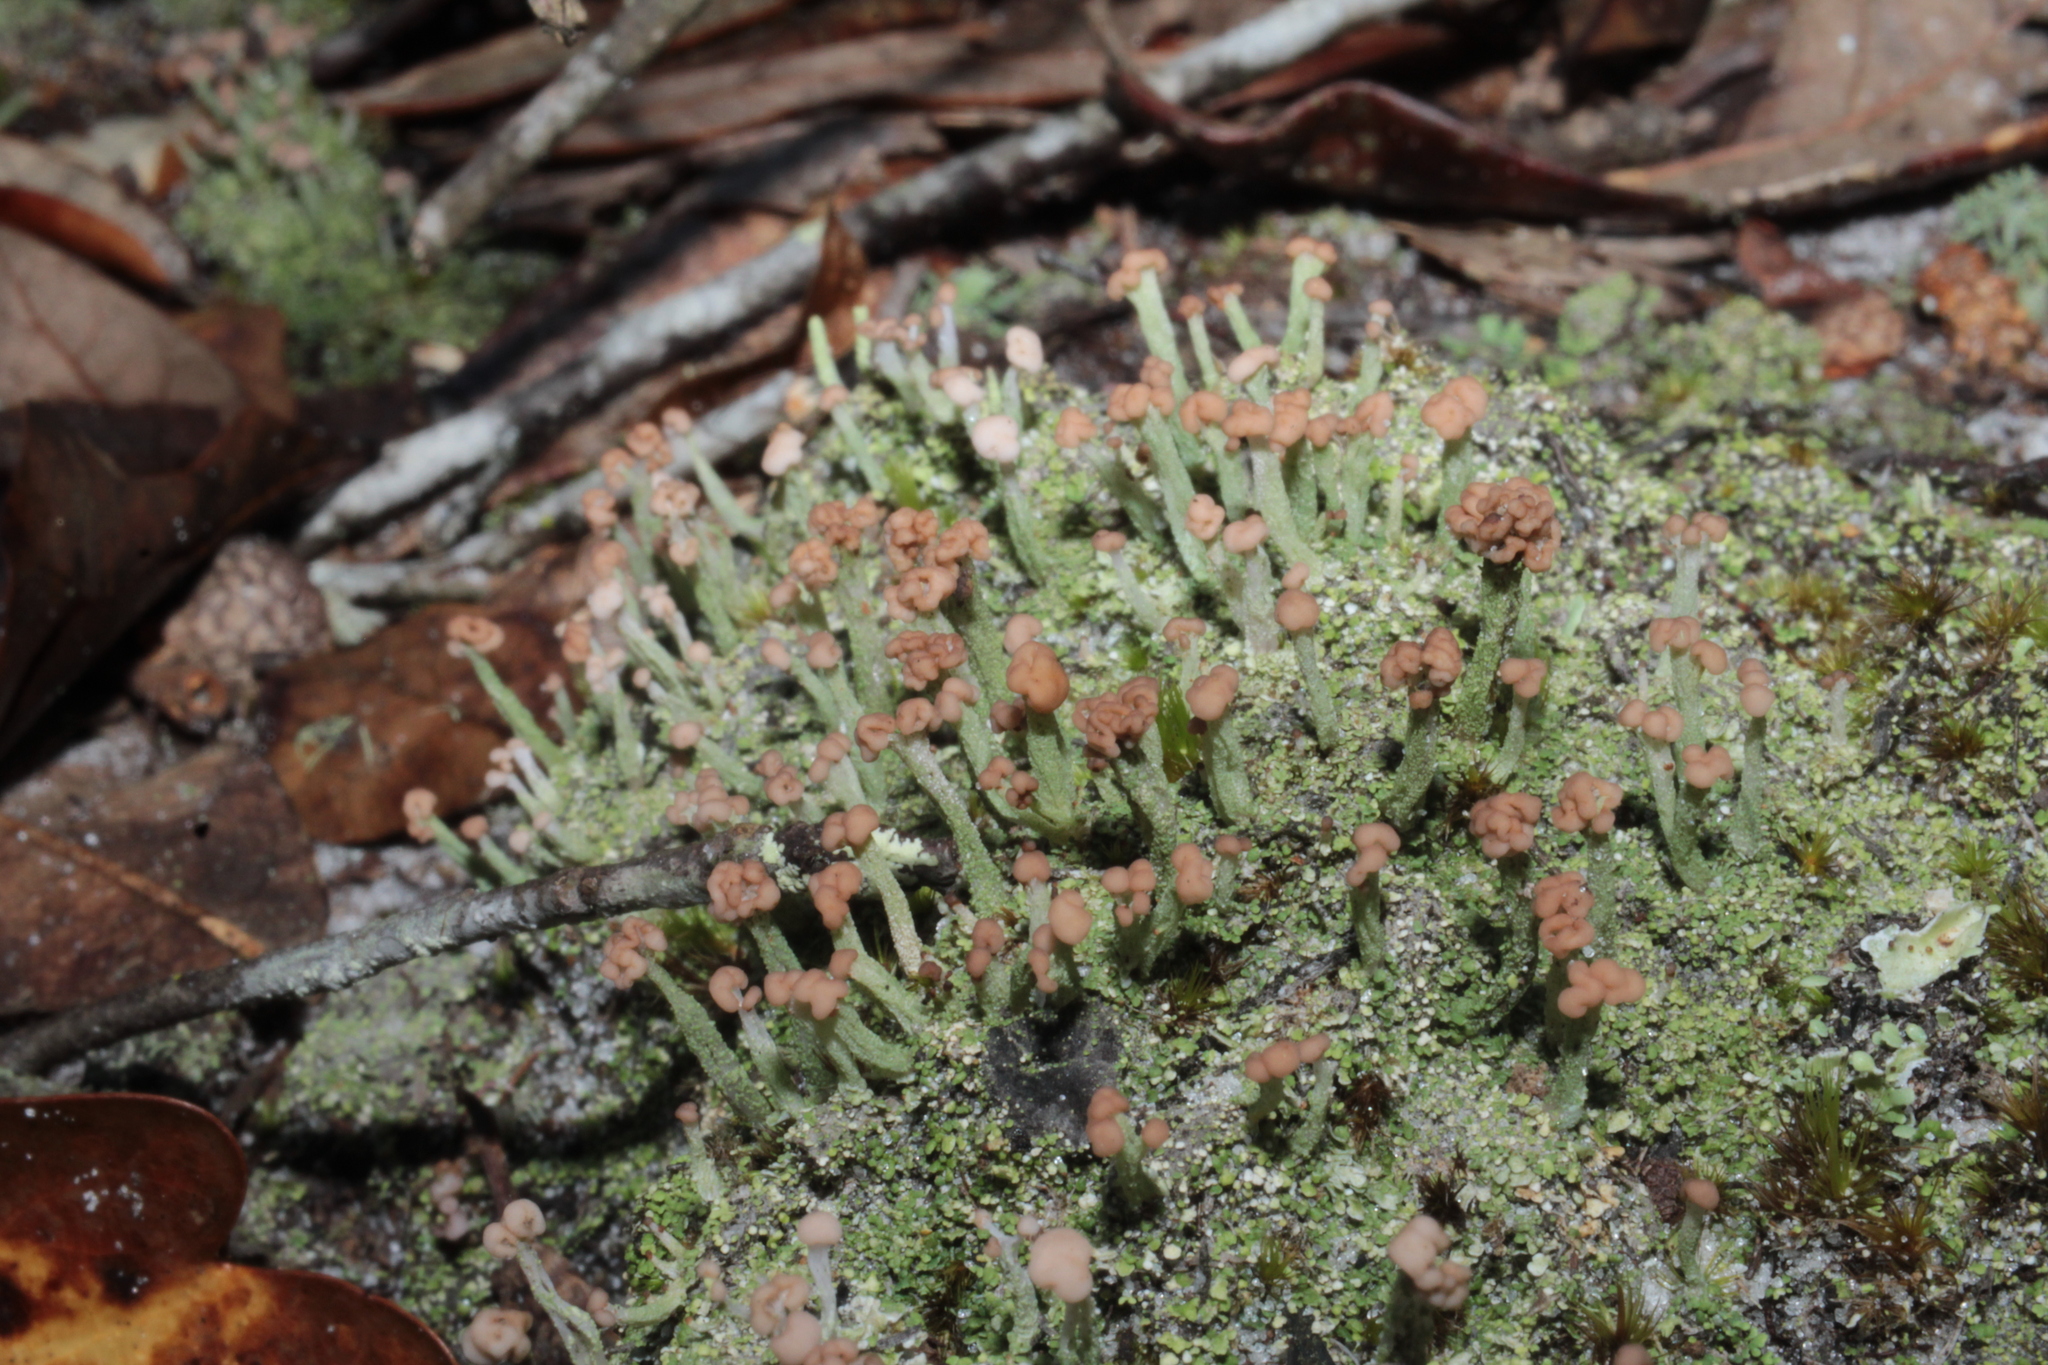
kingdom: Fungi
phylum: Ascomycota
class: Lecanoromycetes
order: Lecanorales
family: Cladoniaceae
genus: Cladonia
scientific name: Cladonia peziziformis
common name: Cup lichen
